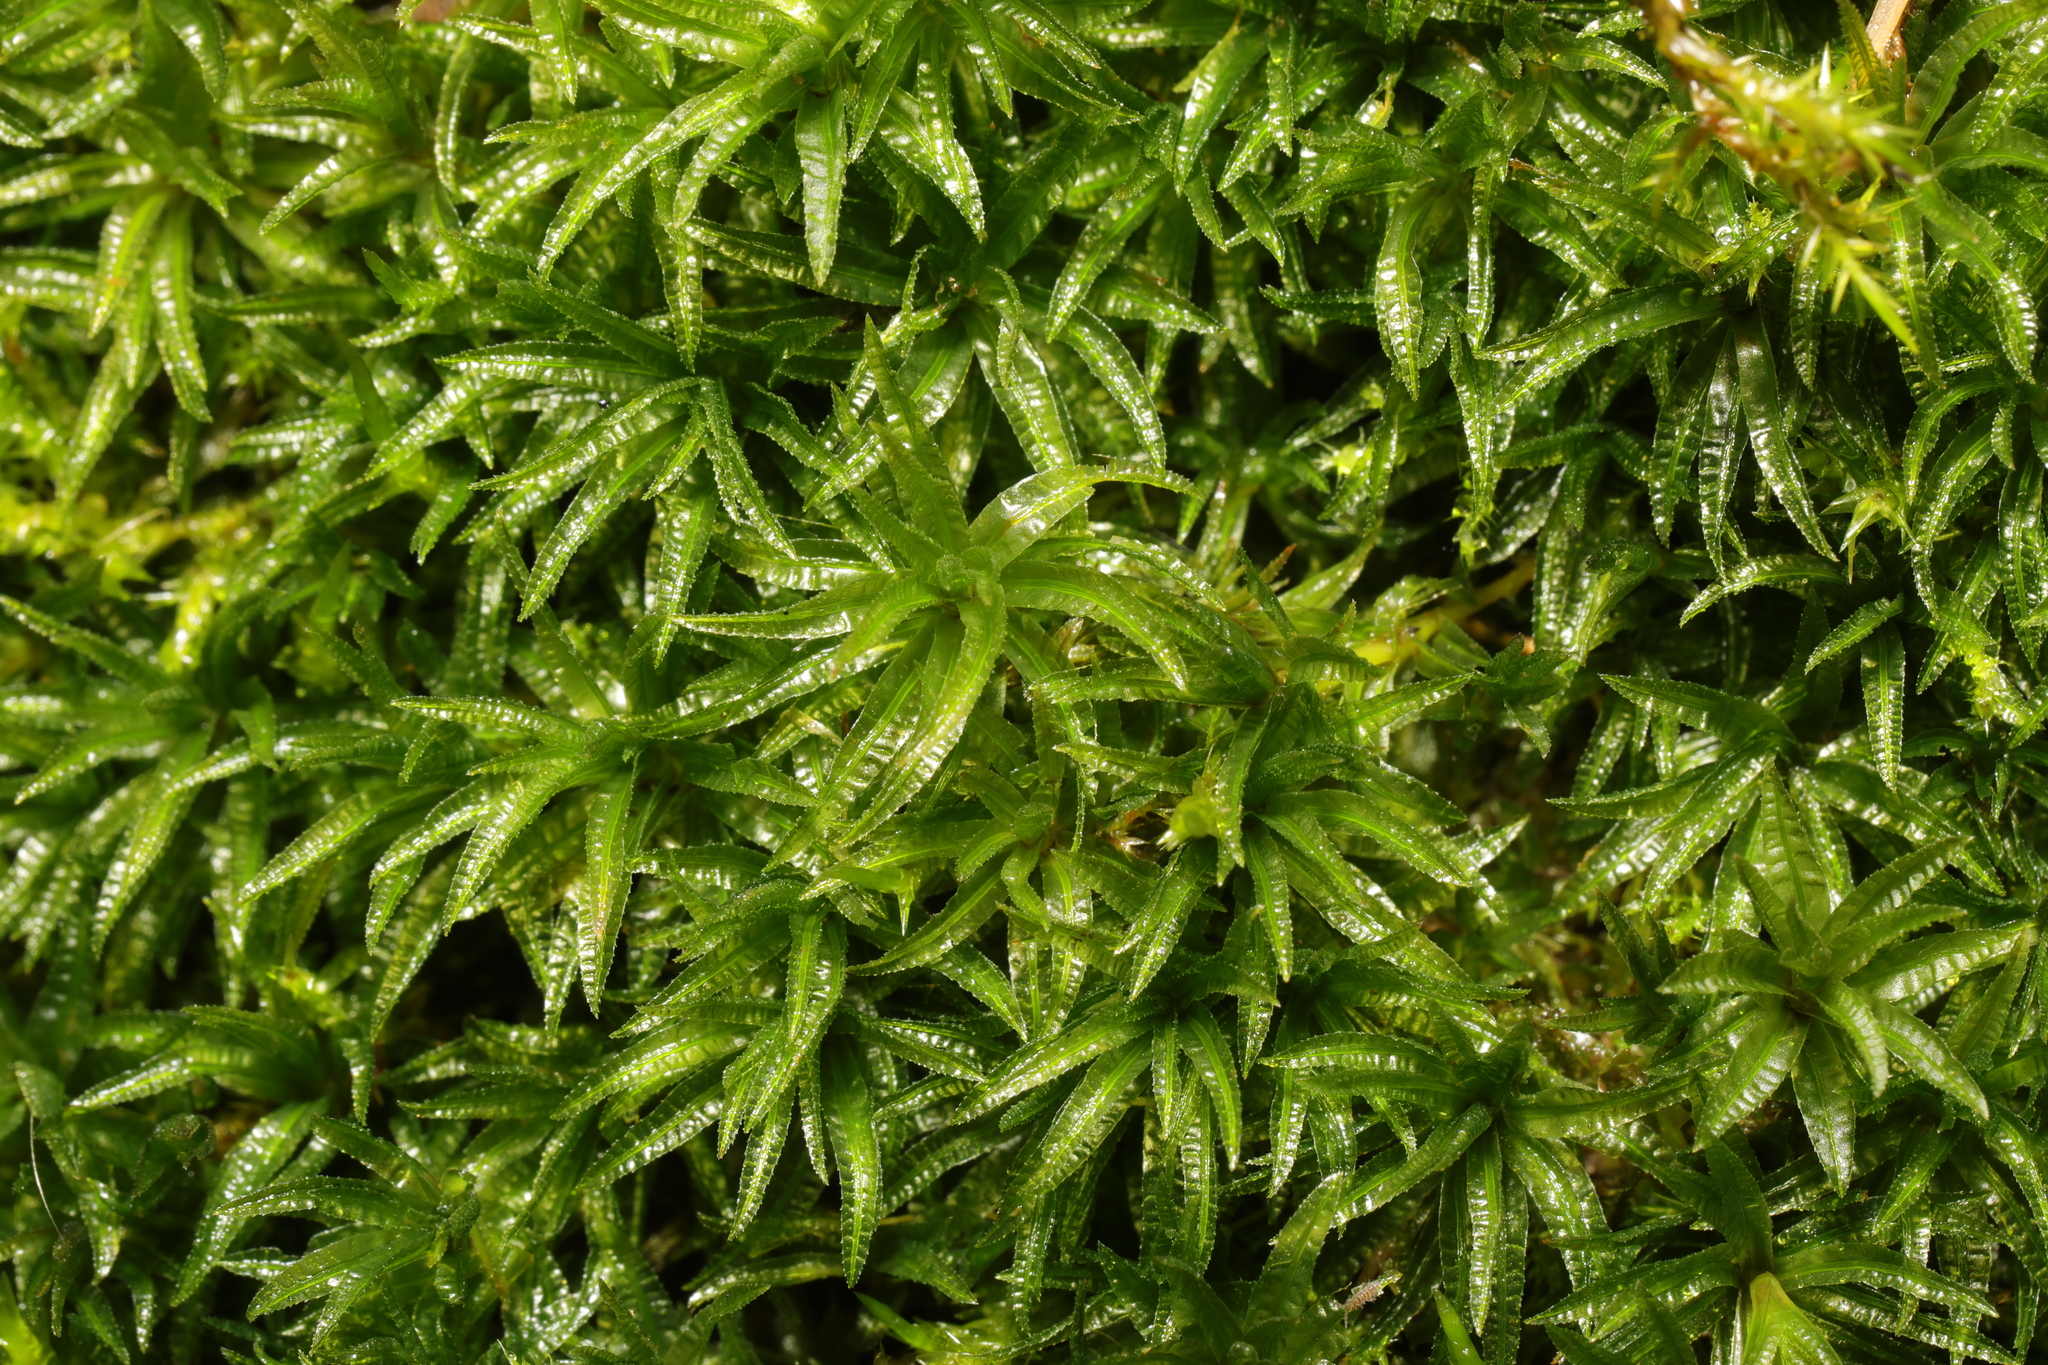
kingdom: Plantae
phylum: Bryophyta
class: Polytrichopsida
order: Polytrichales
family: Polytrichaceae
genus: Atrichum
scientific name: Atrichum undulatum
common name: Common smoothcap
